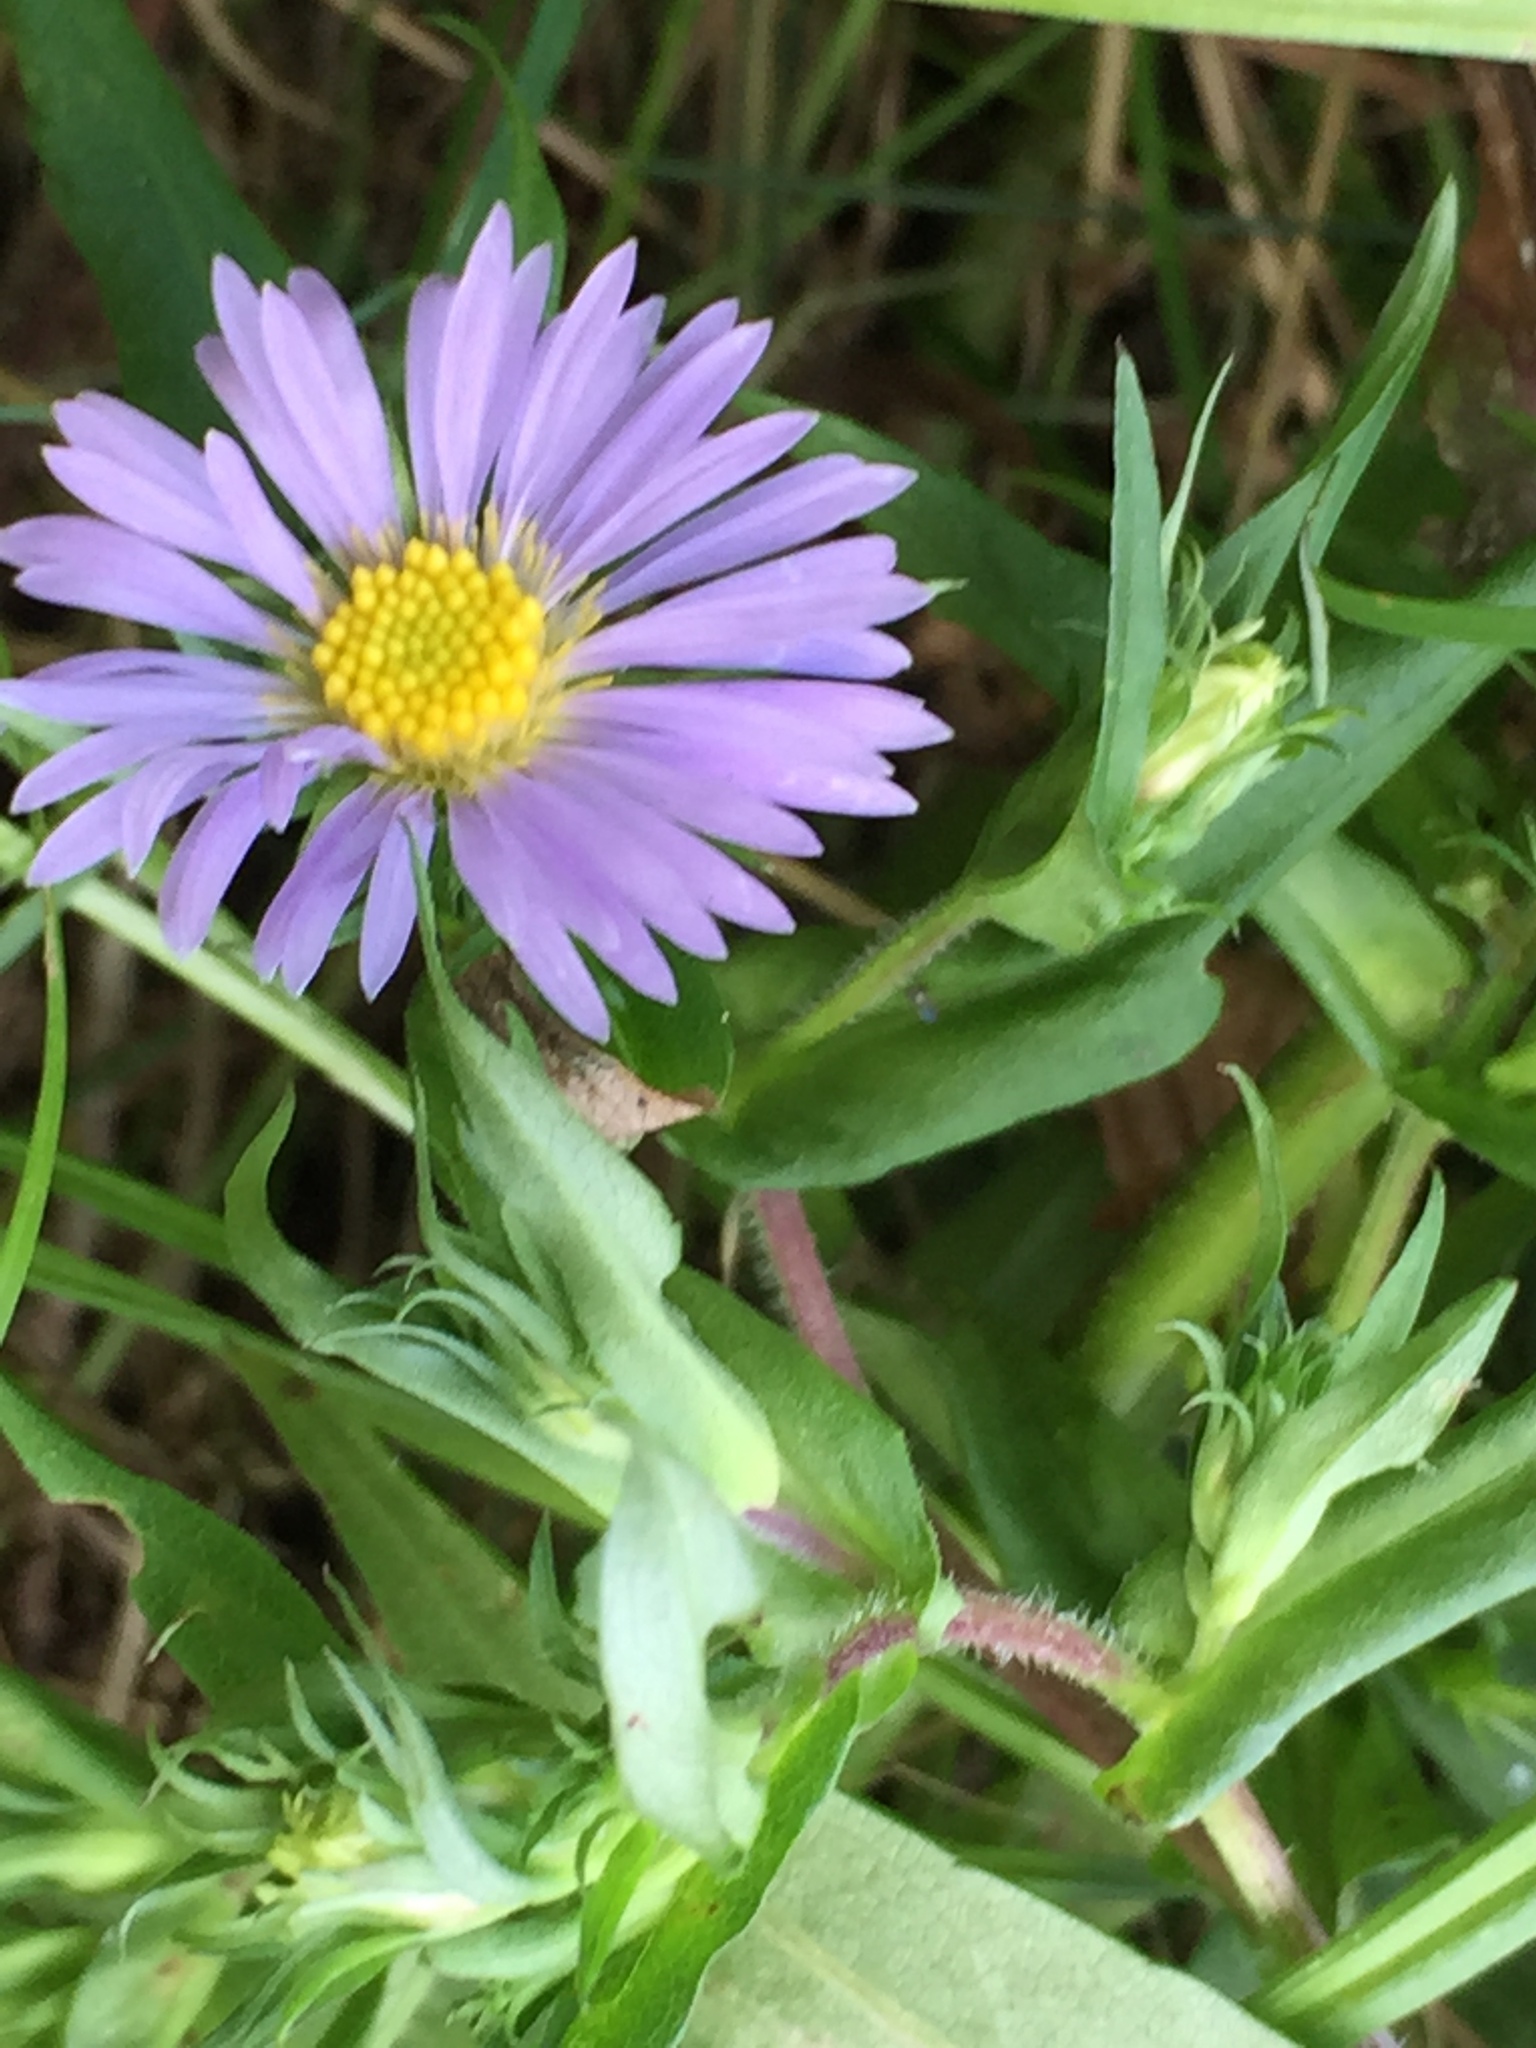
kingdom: Plantae
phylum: Tracheophyta
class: Magnoliopsida
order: Asterales
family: Asteraceae
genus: Symphyotrichum
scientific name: Symphyotrichum puniceum
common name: Bog aster
